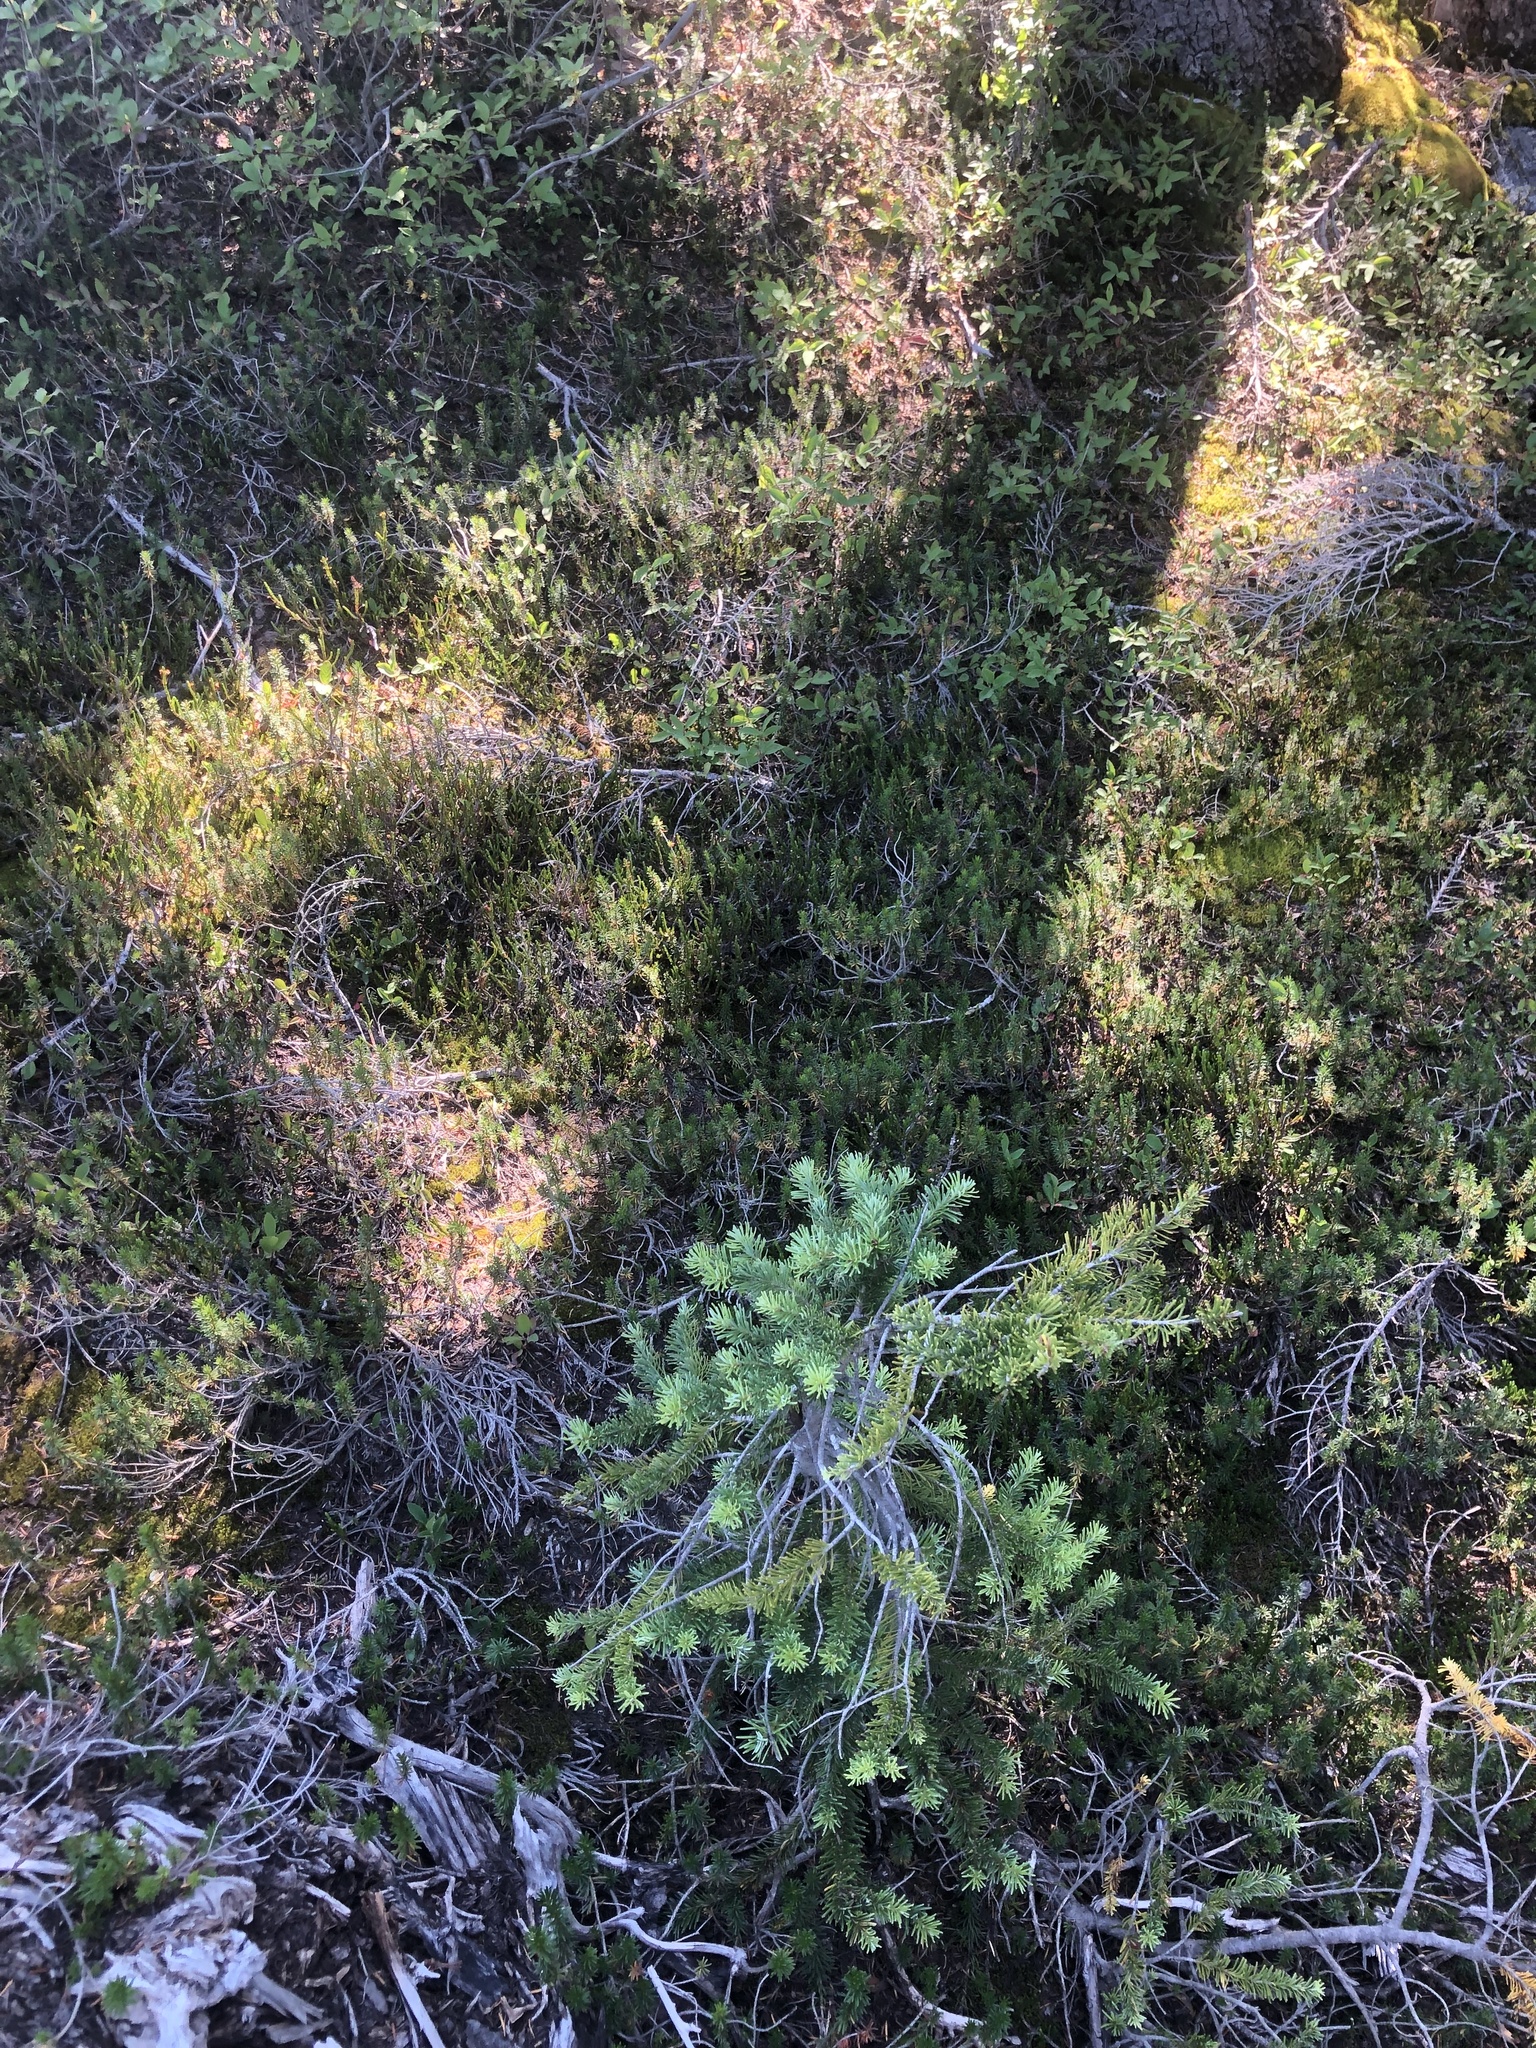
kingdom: Plantae
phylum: Tracheophyta
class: Pinopsida
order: Pinales
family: Pinaceae
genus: Abies
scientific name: Abies lasiocarpa
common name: Subalpine fir
